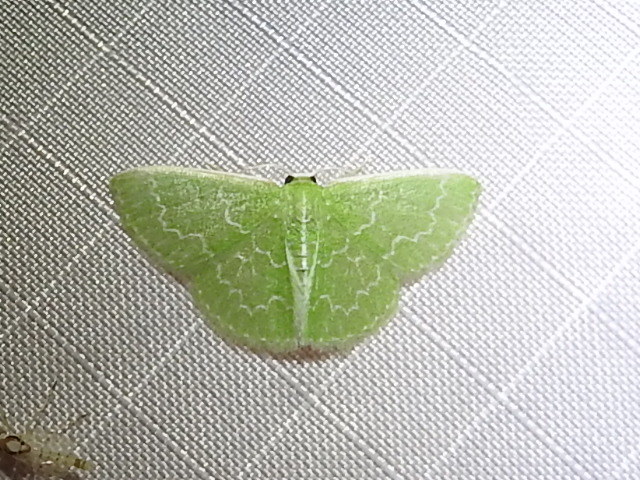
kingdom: Animalia
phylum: Arthropoda
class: Insecta
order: Lepidoptera
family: Geometridae
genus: Synchlora
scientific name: Synchlora frondaria
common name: Southern emerald
